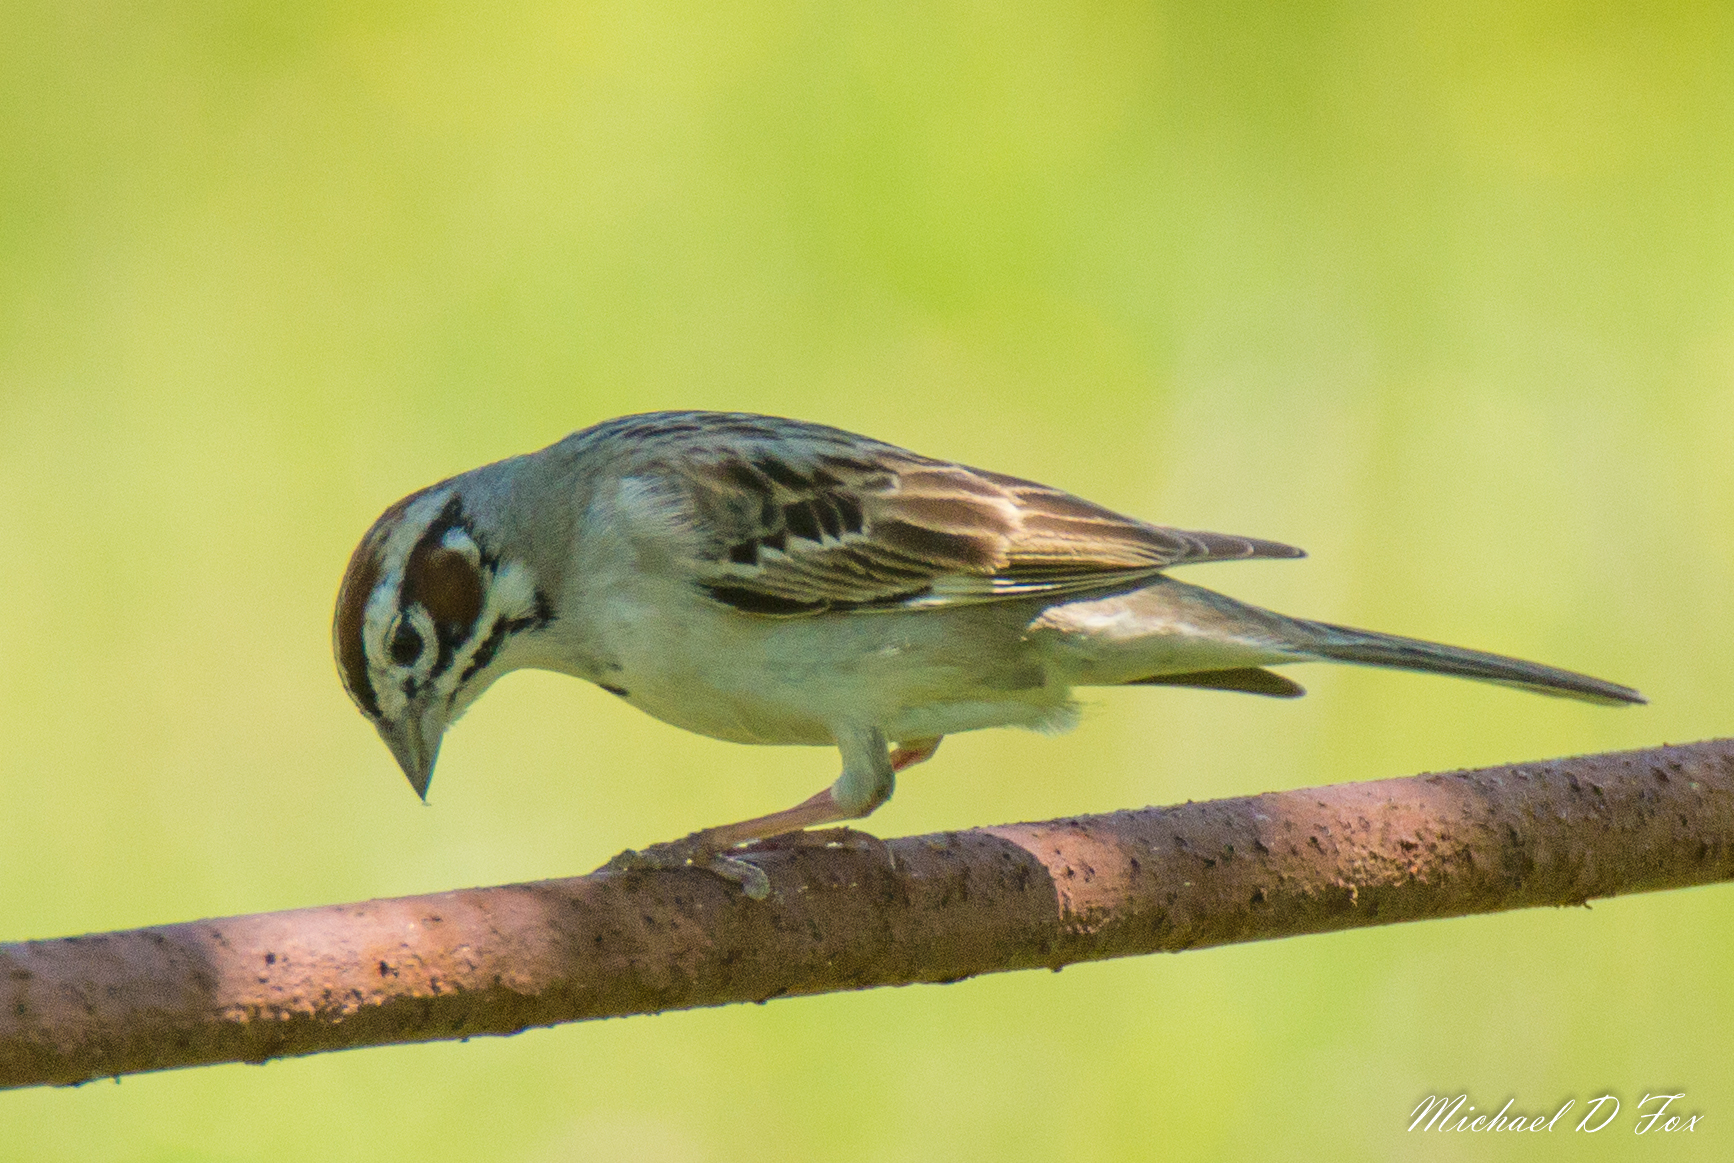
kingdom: Animalia
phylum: Chordata
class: Aves
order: Passeriformes
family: Passerellidae
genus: Chondestes
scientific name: Chondestes grammacus
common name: Lark sparrow
